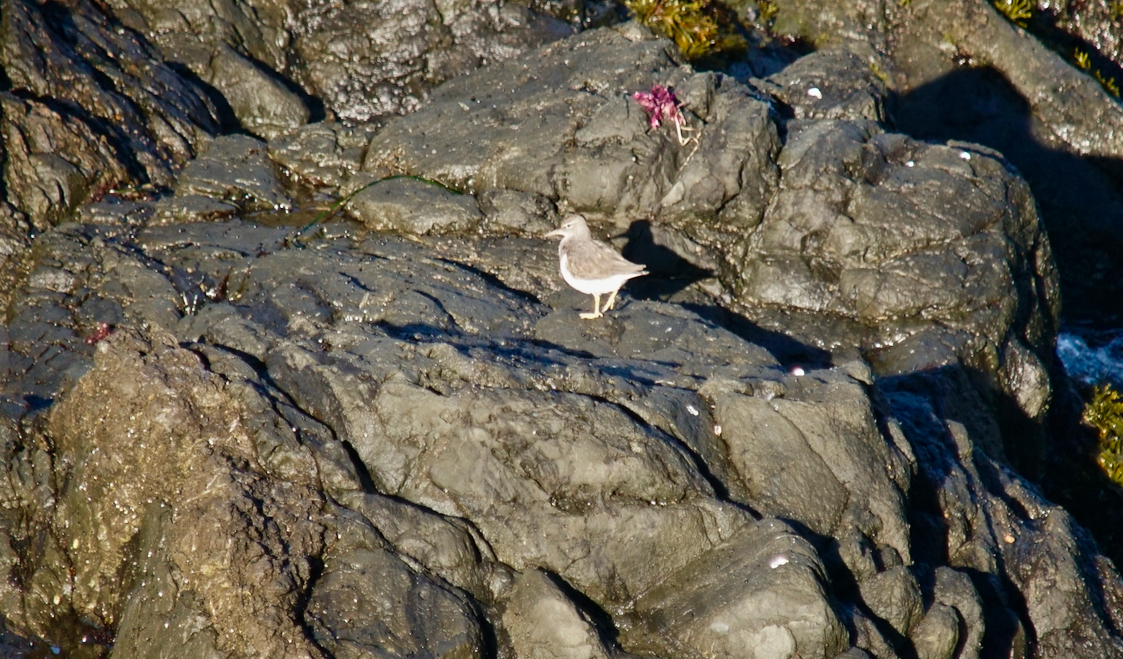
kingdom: Animalia
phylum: Chordata
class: Aves
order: Charadriiformes
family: Scolopacidae
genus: Actitis
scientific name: Actitis macularius
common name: Spotted sandpiper
